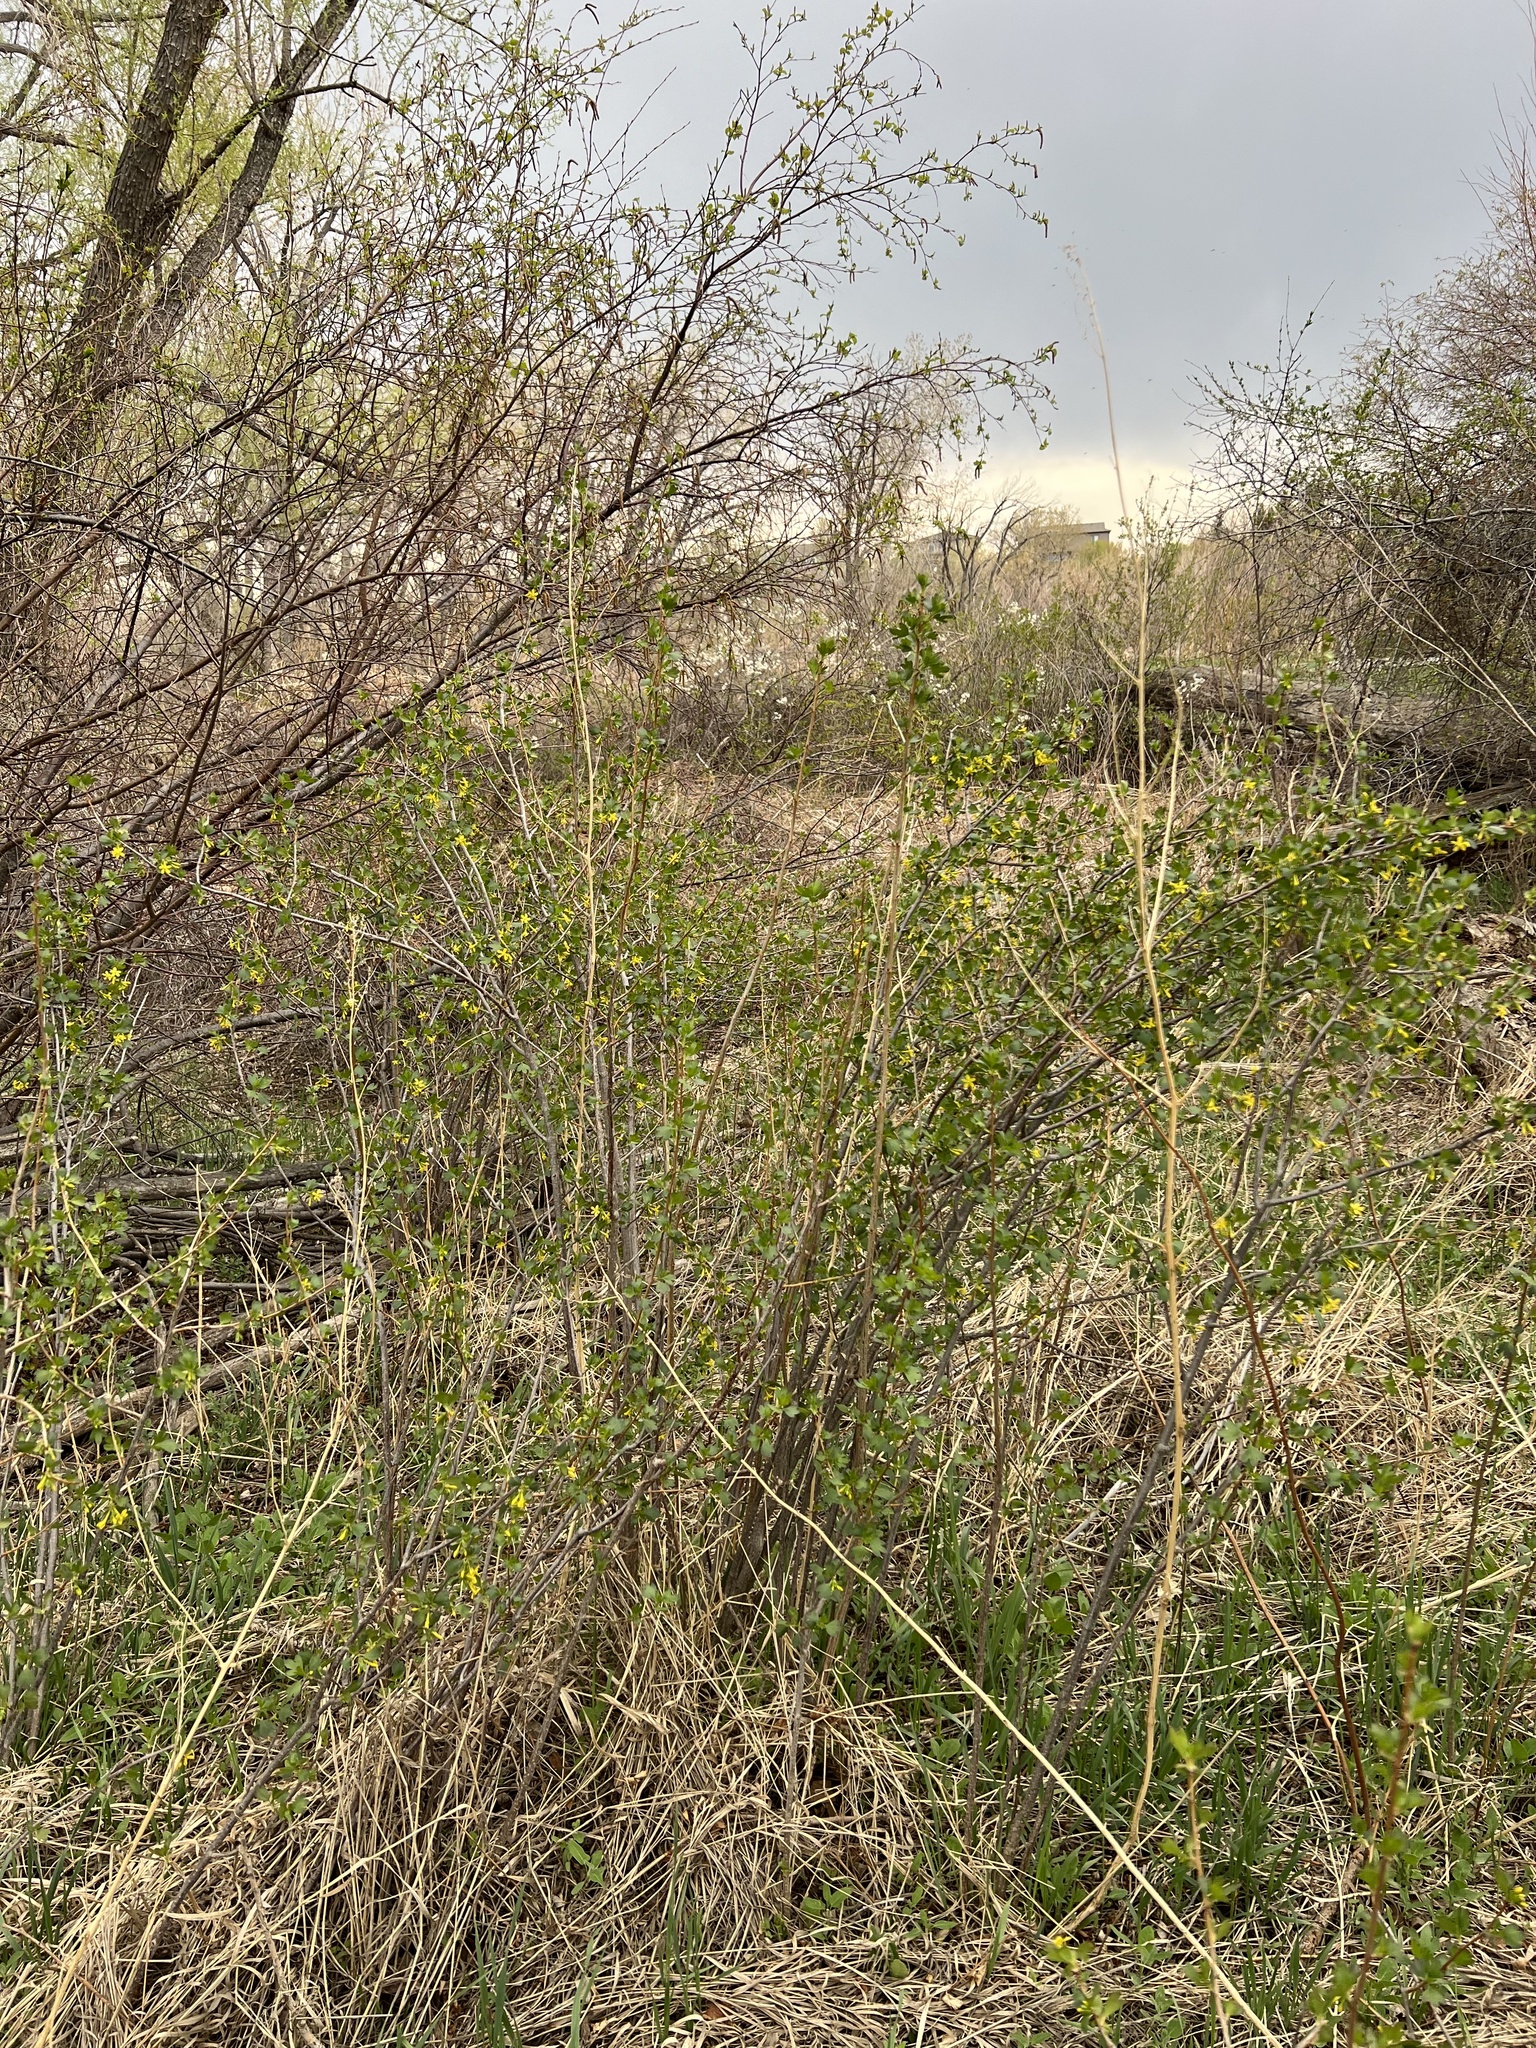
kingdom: Plantae
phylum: Tracheophyta
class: Magnoliopsida
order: Saxifragales
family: Grossulariaceae
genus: Ribes
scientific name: Ribes aureum
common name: Golden currant
